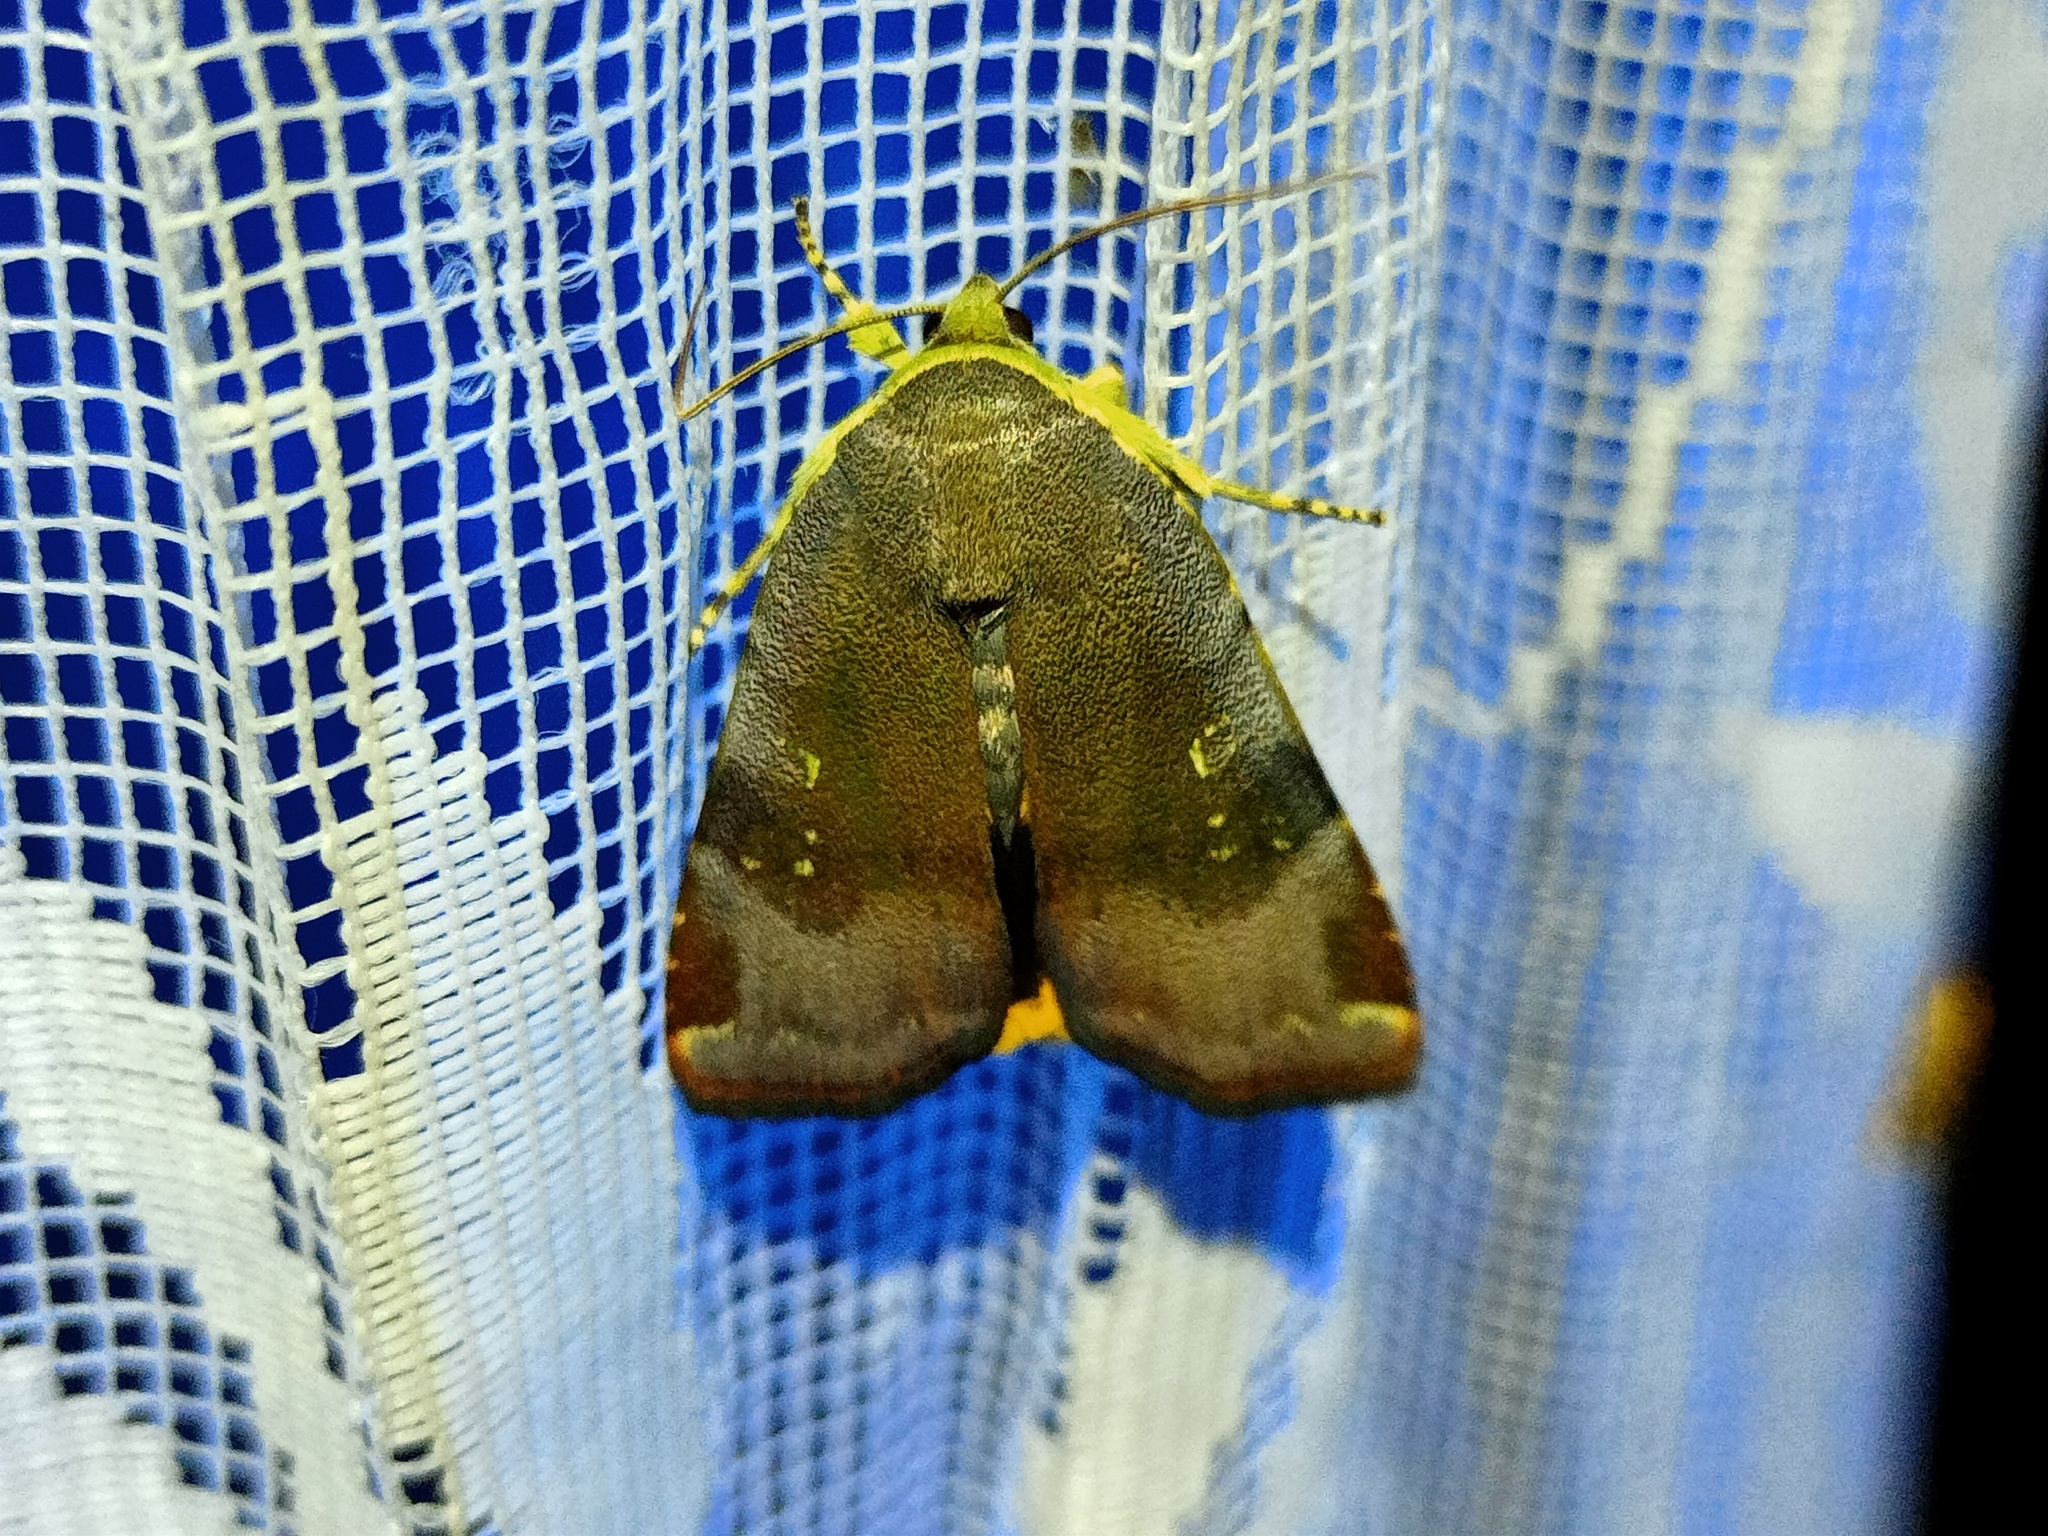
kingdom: Animalia
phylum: Arthropoda
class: Insecta
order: Lepidoptera
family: Noctuidae
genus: Noctua
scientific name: Noctua janthina
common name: Langmaid's yellow underwing
